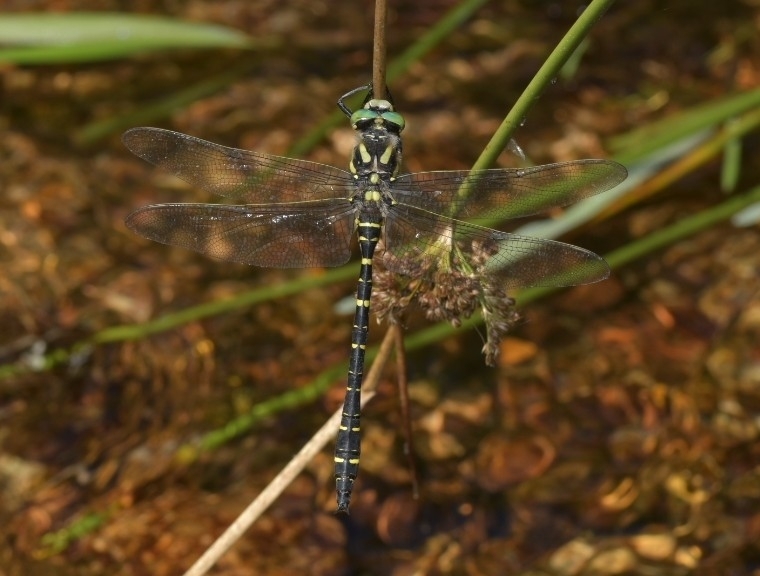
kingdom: Animalia
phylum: Arthropoda
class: Insecta
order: Odonata
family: Cordulegastridae
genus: Cordulegaster
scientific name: Cordulegaster boltonii
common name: Golden-ringed dragonfly
